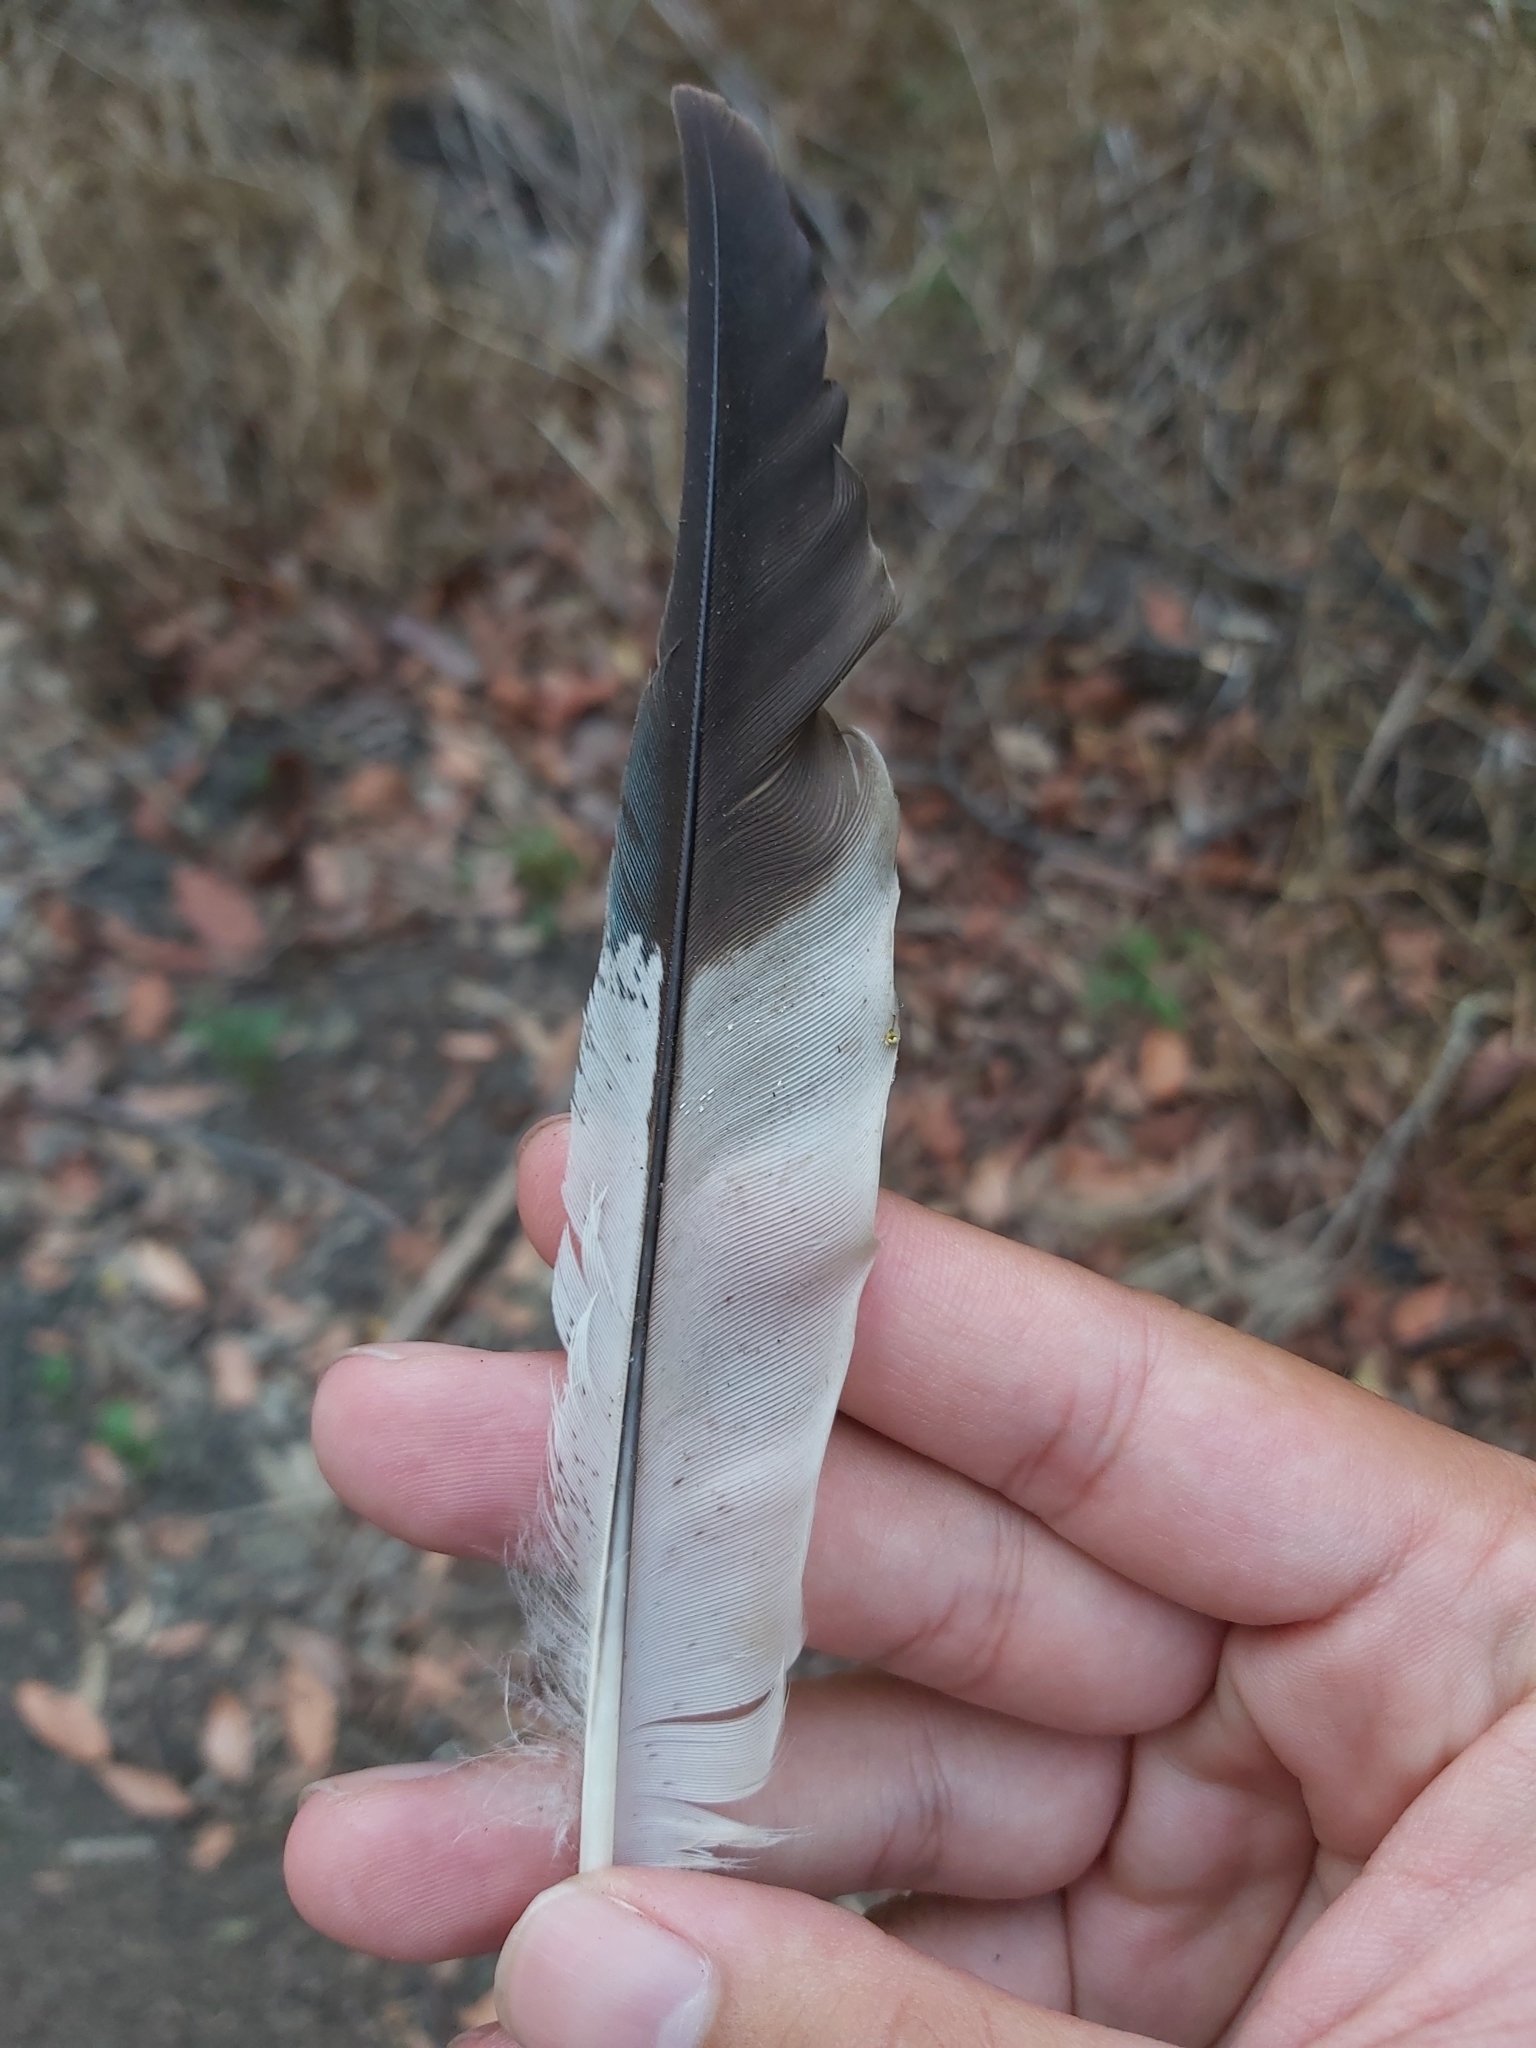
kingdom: Animalia
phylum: Chordata
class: Aves
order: Coraciiformes
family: Alcedinidae
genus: Dacelo
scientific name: Dacelo novaeguineae
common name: Laughing kookaburra
